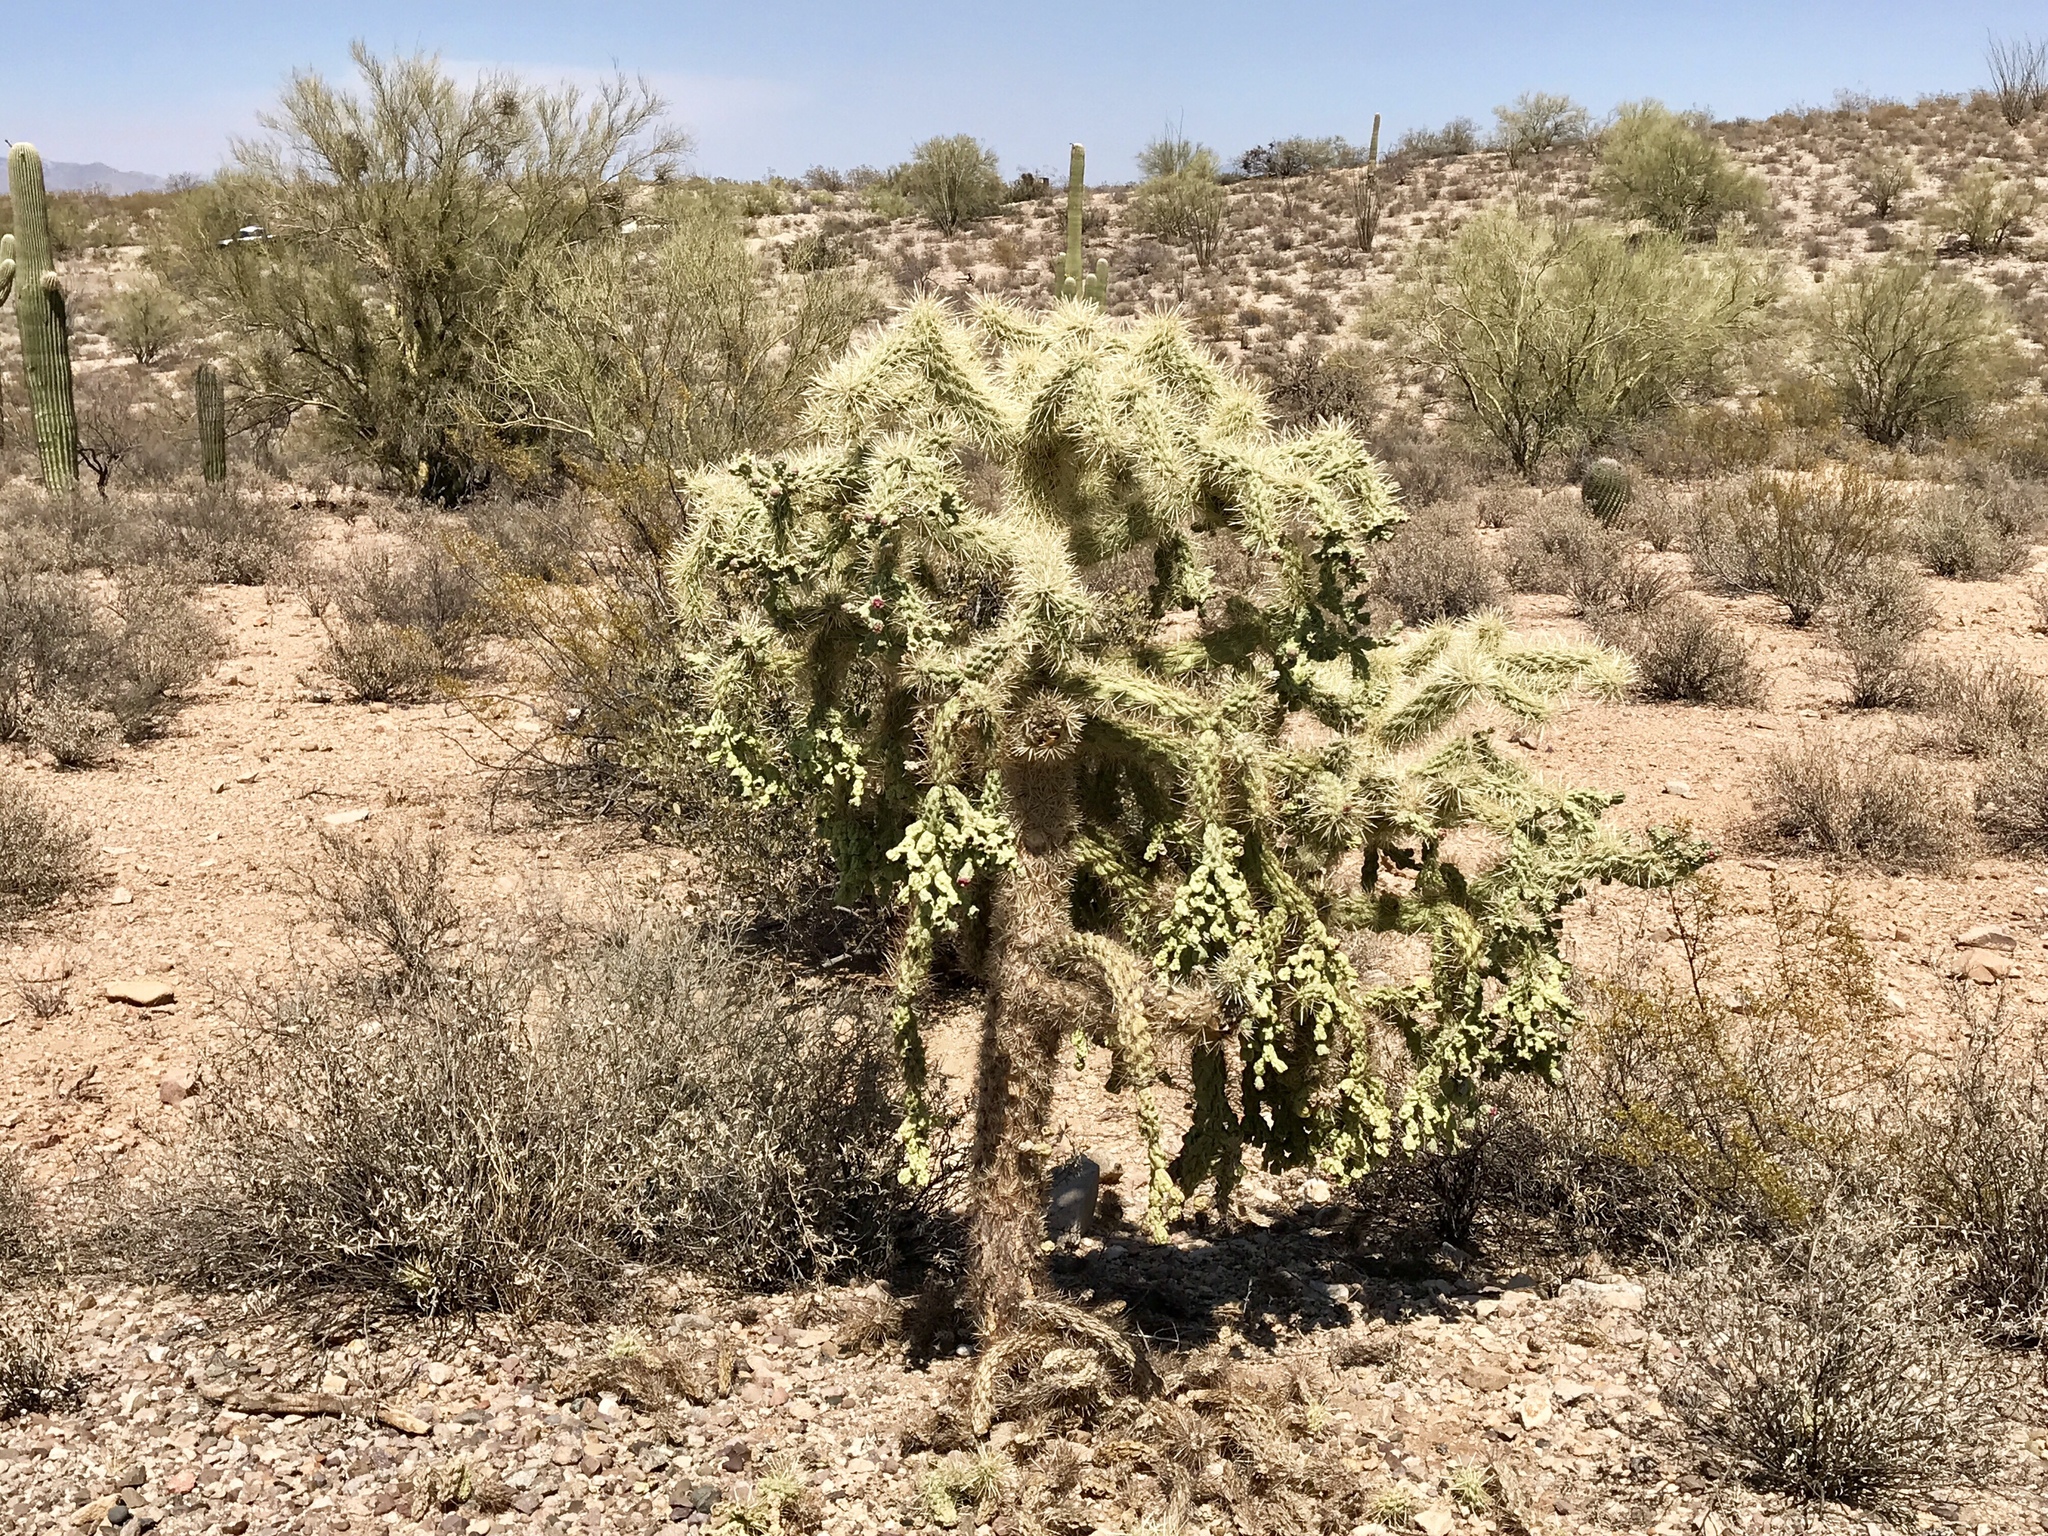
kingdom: Plantae
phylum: Tracheophyta
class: Magnoliopsida
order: Caryophyllales
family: Cactaceae
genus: Cylindropuntia
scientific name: Cylindropuntia fulgida
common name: Jumping cholla
